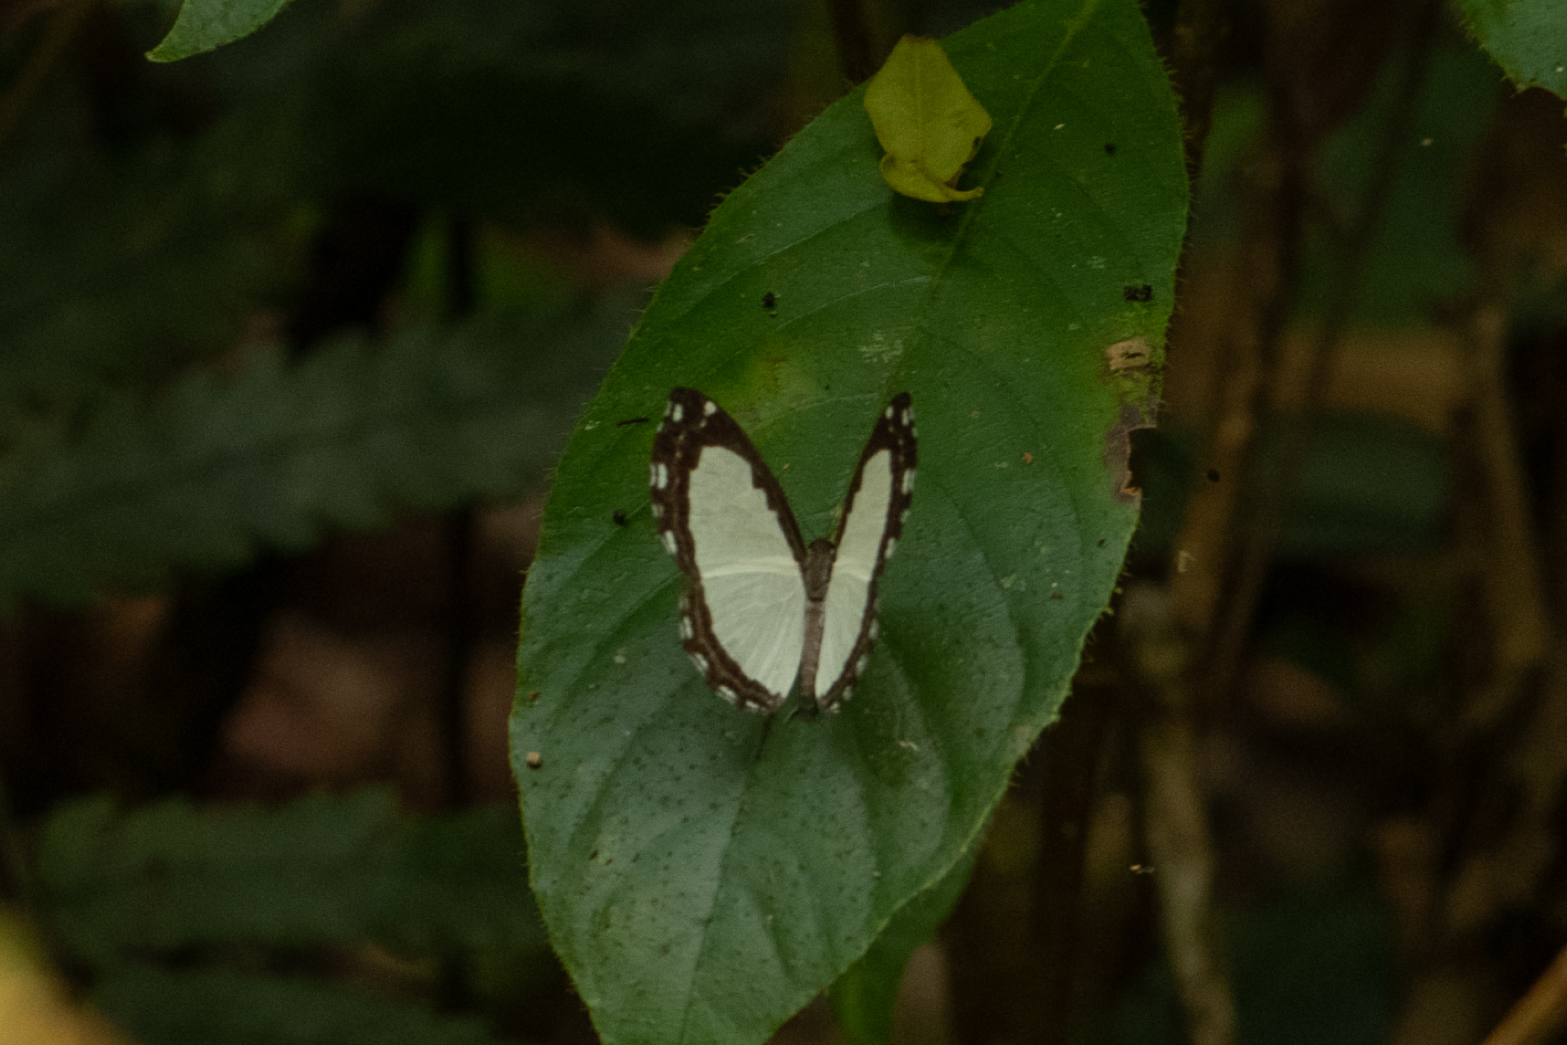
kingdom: Animalia
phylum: Arthropoda
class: Insecta
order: Lepidoptera
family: Riodinidae
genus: Stiboges
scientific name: Stiboges nymphidia
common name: Columbine
